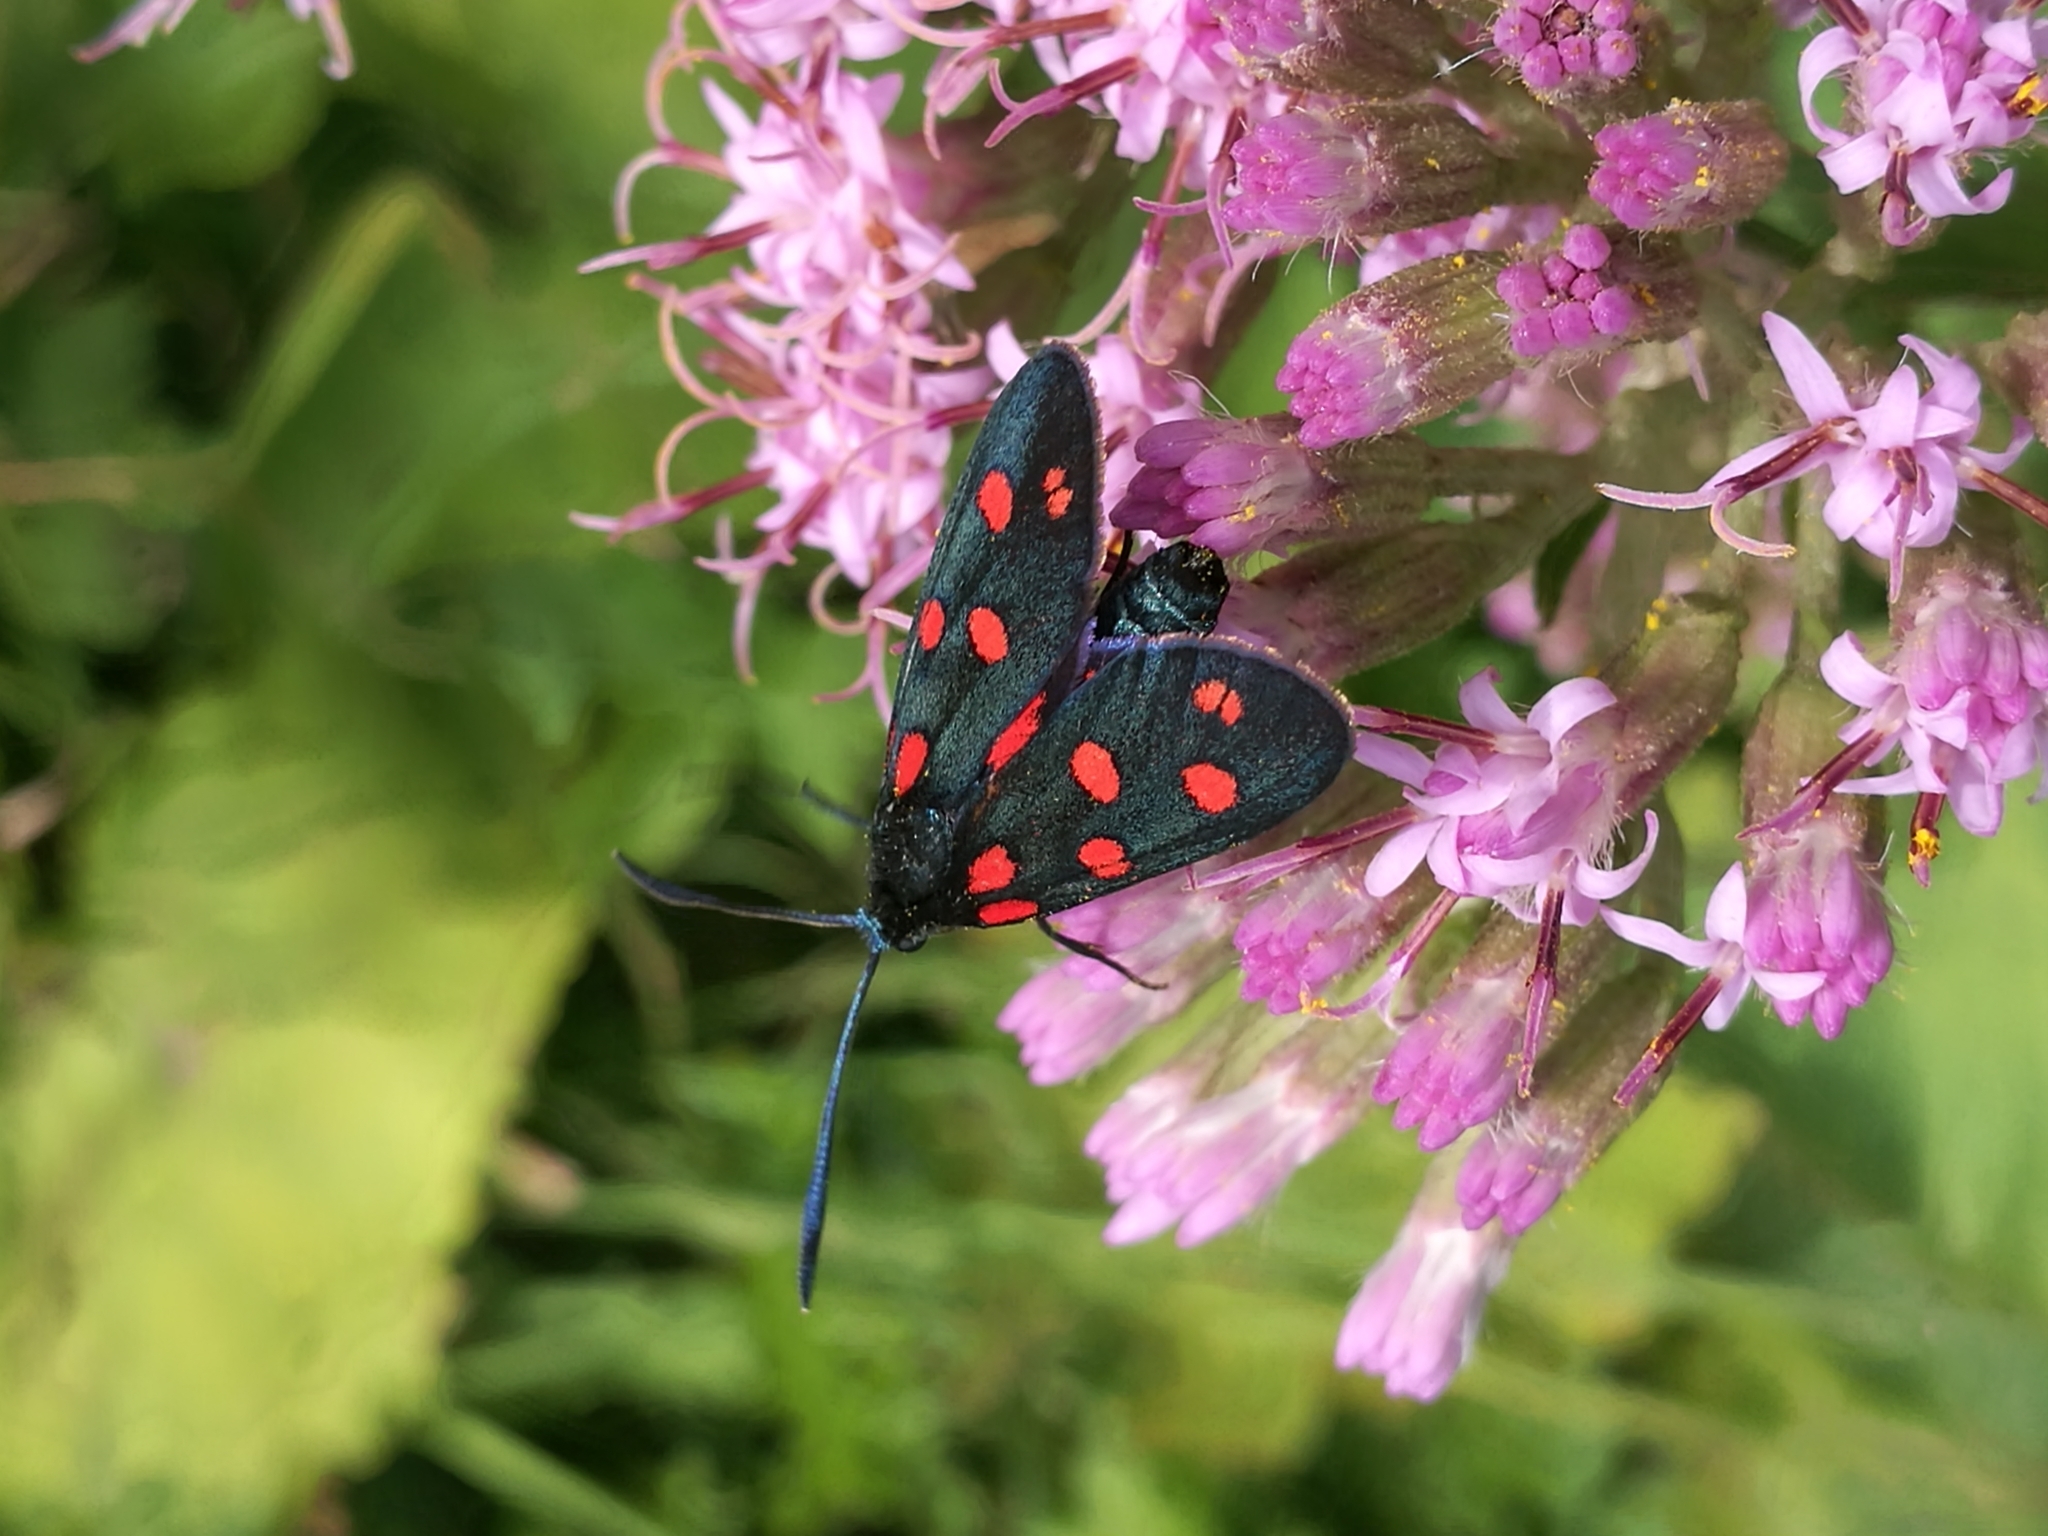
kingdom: Animalia
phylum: Arthropoda
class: Insecta
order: Lepidoptera
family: Zygaenidae
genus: Zygaena
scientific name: Zygaena transalpina
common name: Southern six spot burnet
